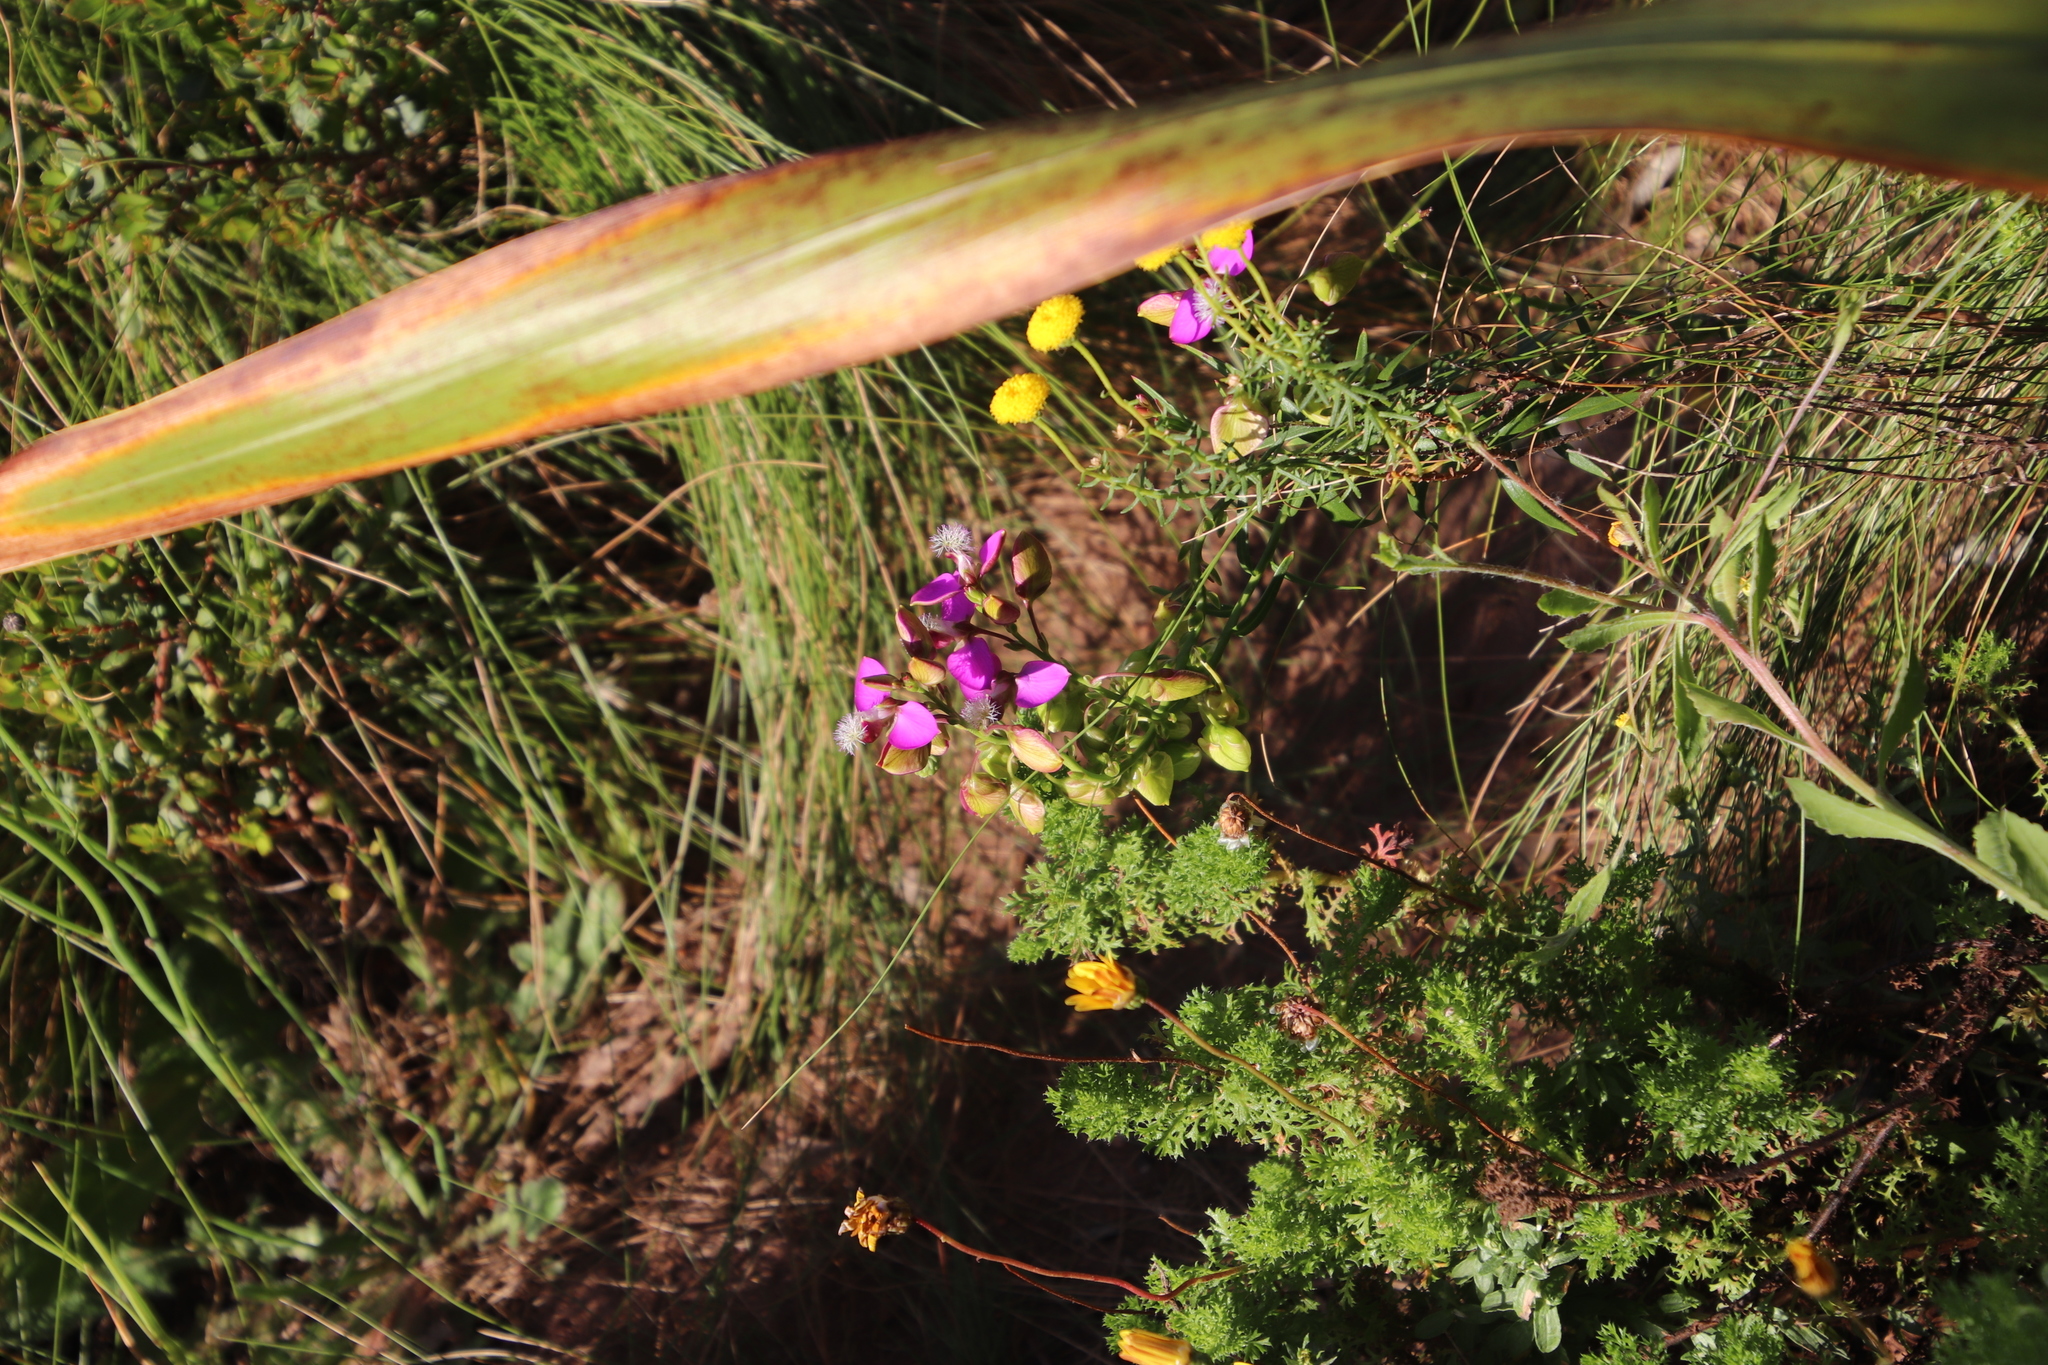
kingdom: Plantae
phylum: Tracheophyta
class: Magnoliopsida
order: Fabales
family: Polygalaceae
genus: Polygala
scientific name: Polygala bracteolata
